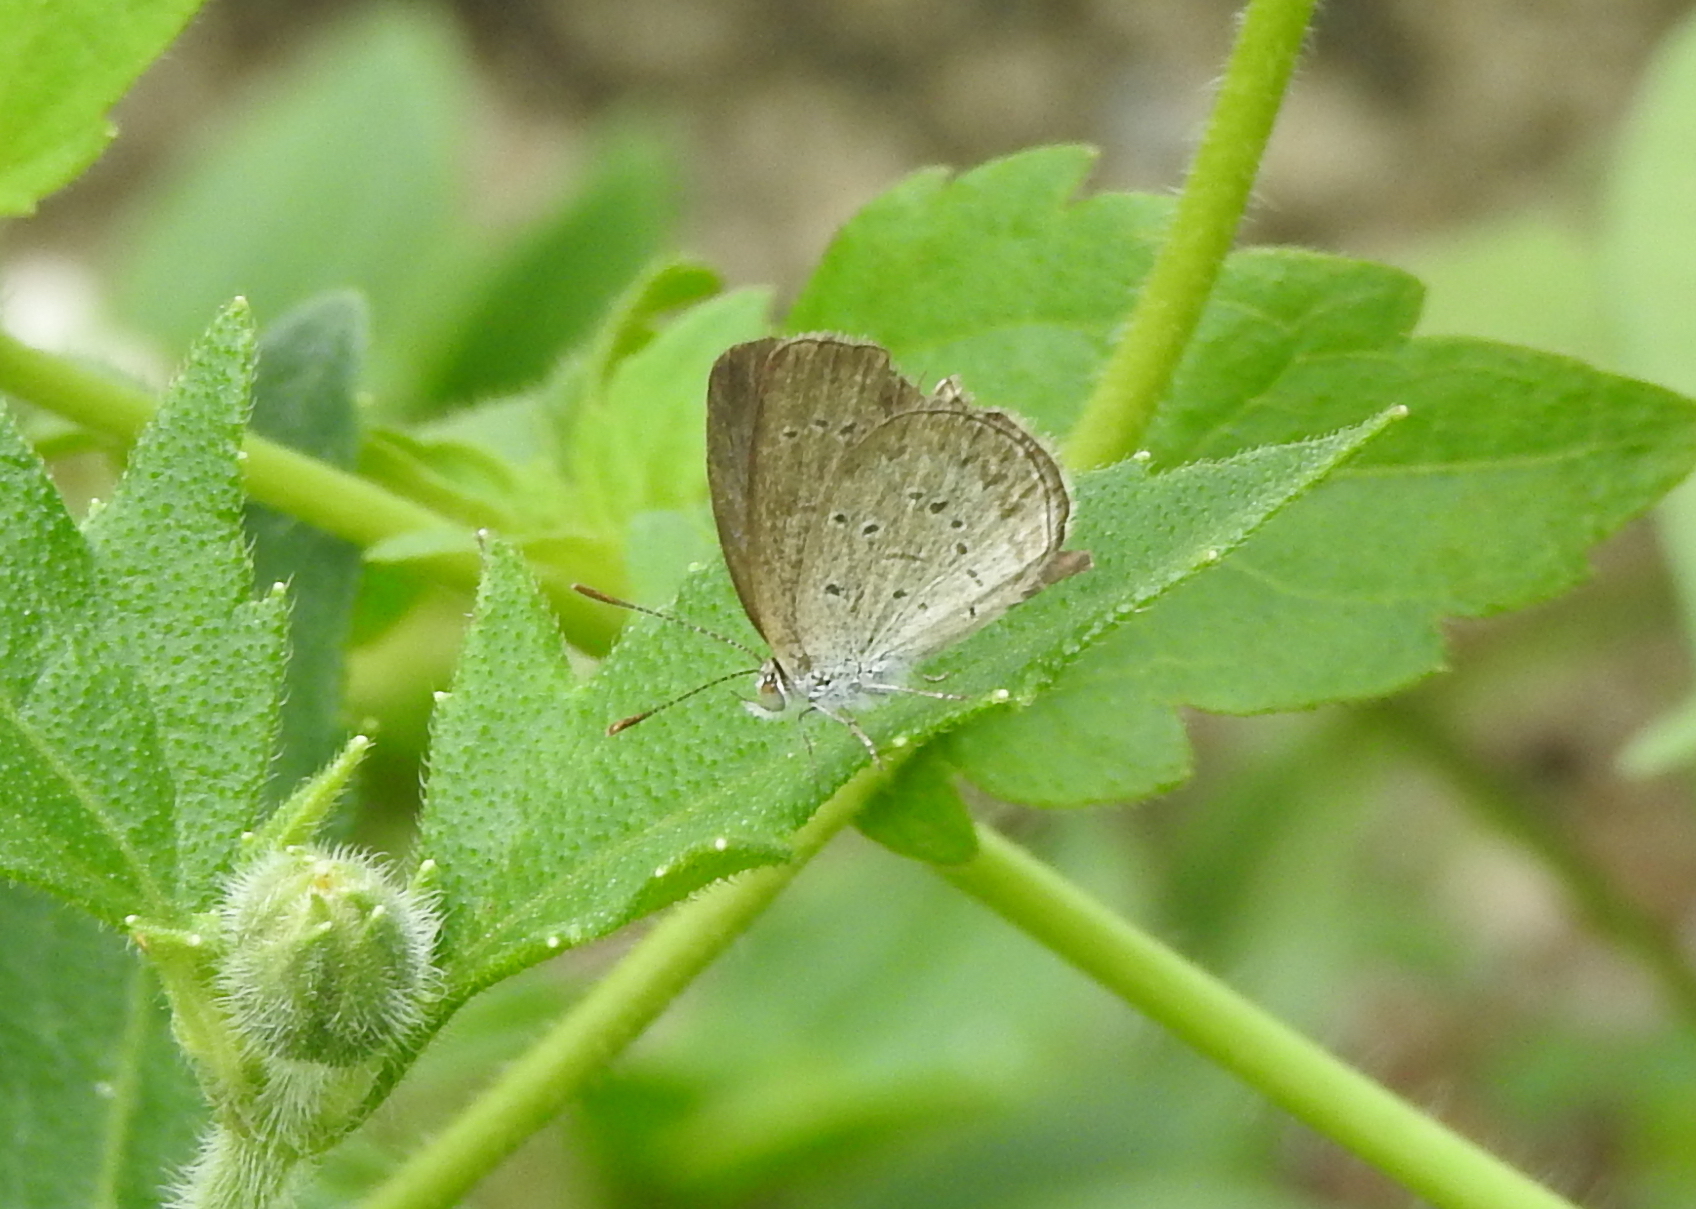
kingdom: Animalia
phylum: Arthropoda
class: Insecta
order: Lepidoptera
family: Lycaenidae
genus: Zizina
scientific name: Zizina otis
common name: Lesser grass blue
